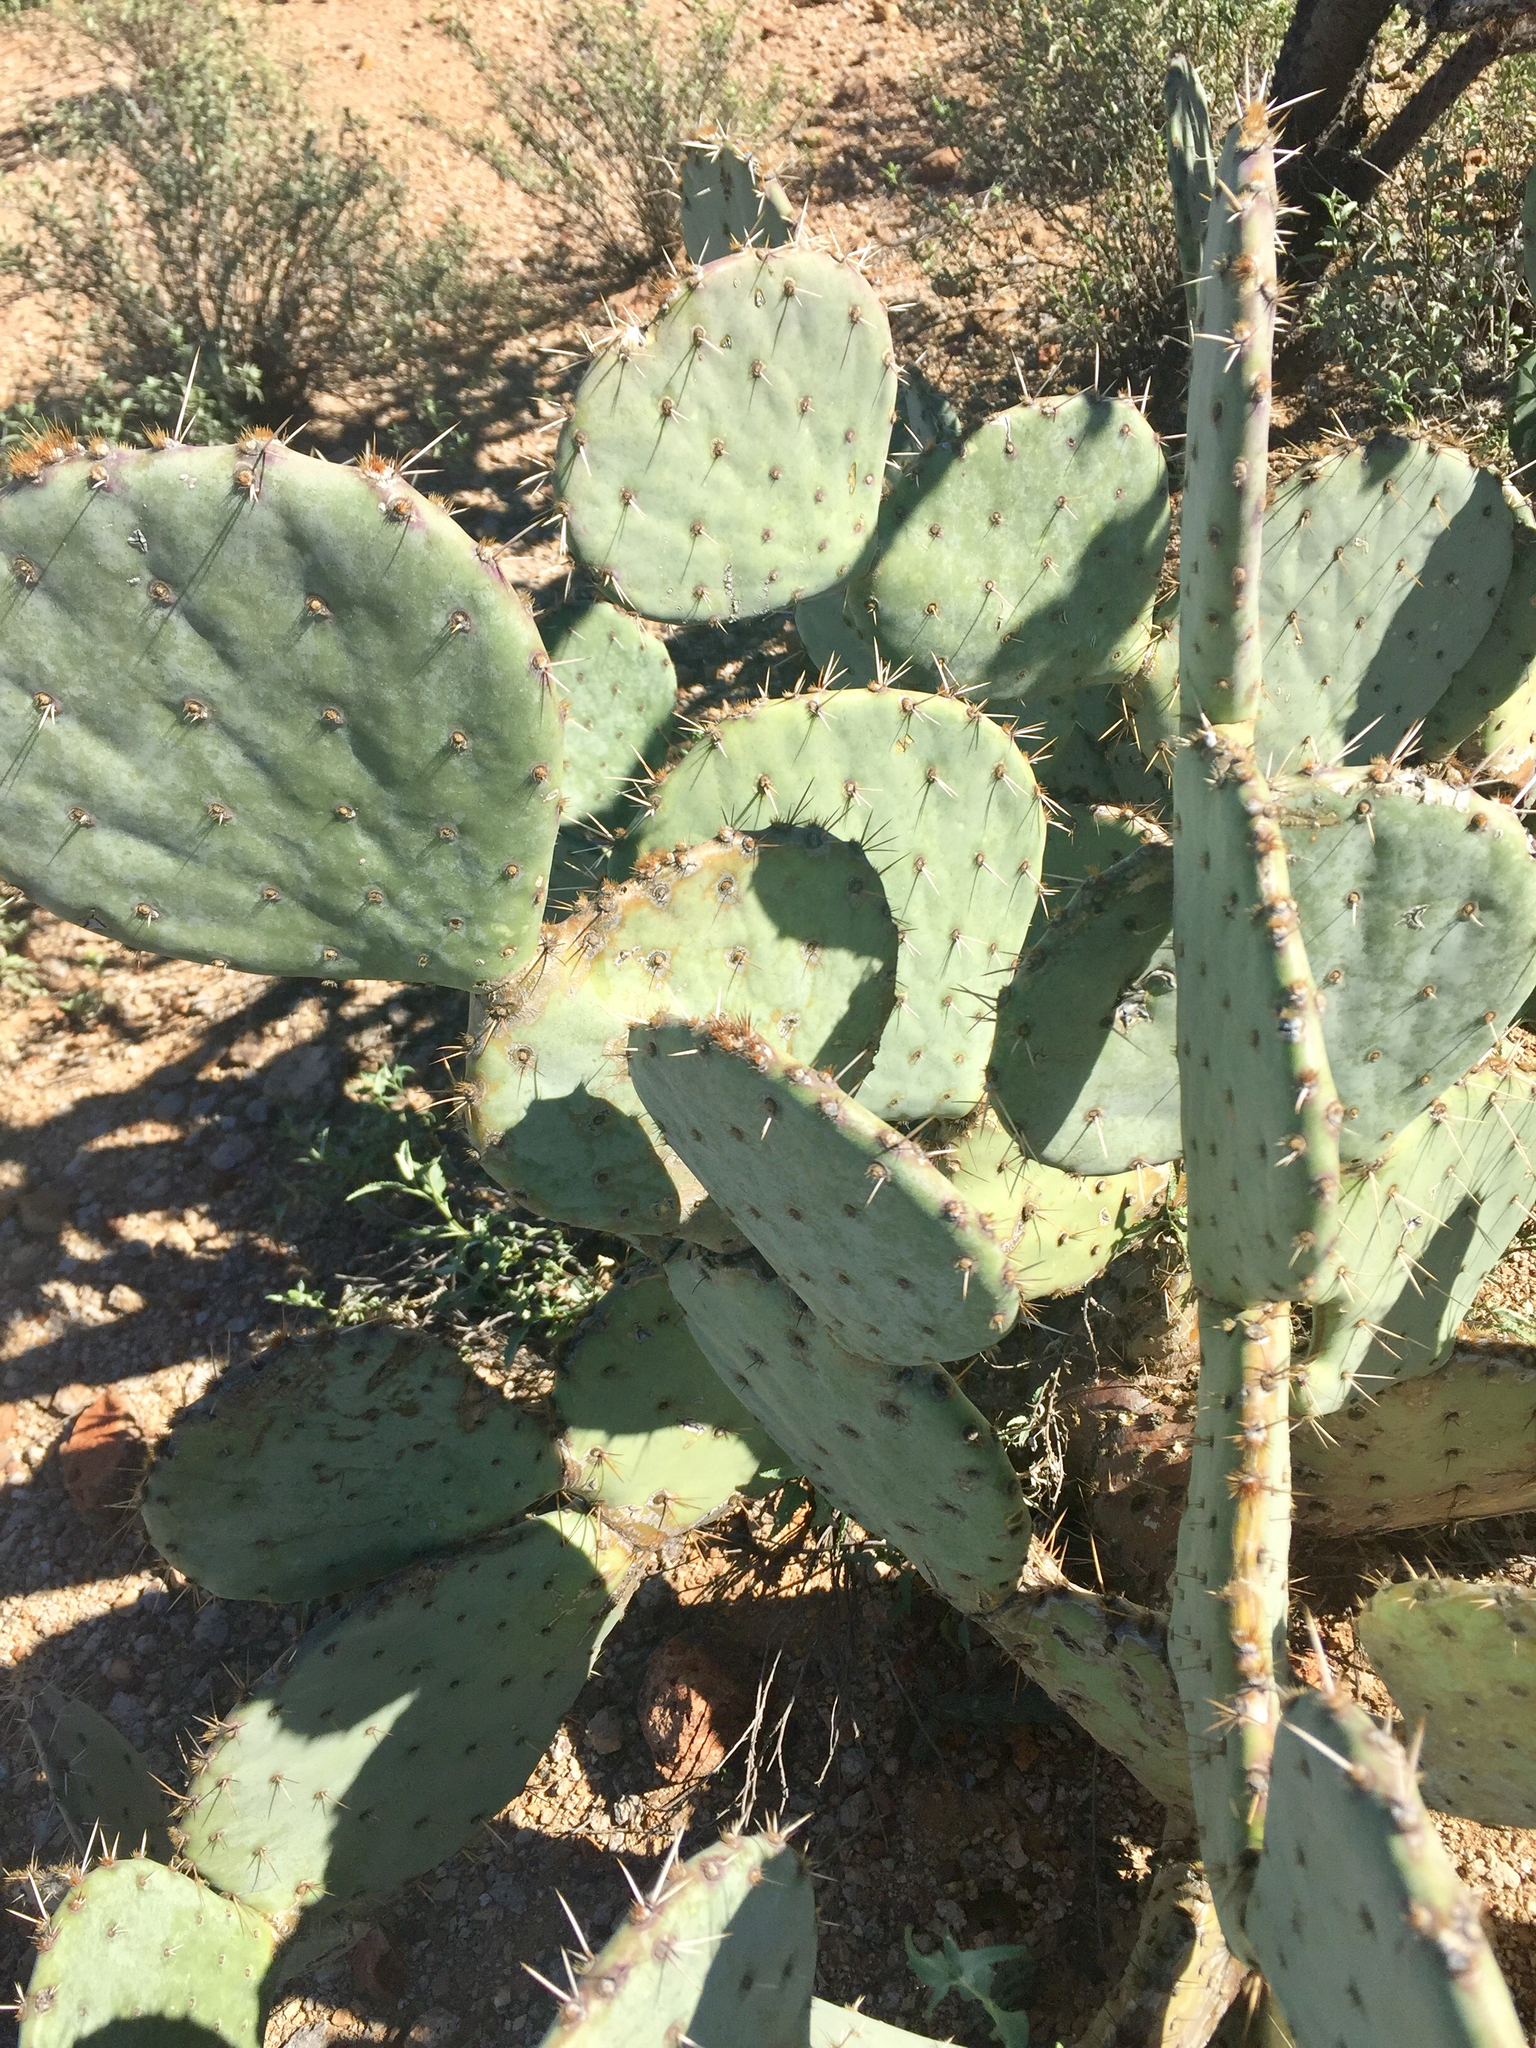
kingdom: Plantae
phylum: Tracheophyta
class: Magnoliopsida
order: Caryophyllales
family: Cactaceae
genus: Opuntia
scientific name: Opuntia engelmannii
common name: Cactus-apple
